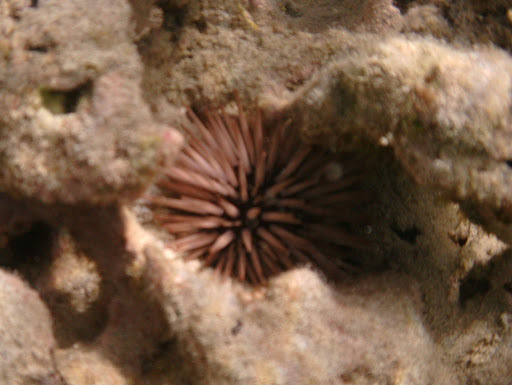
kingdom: Animalia
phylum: Echinodermata
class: Echinoidea
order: Camarodonta
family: Echinometridae
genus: Echinometra
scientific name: Echinometra mathaei
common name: Rock-boring urchin
